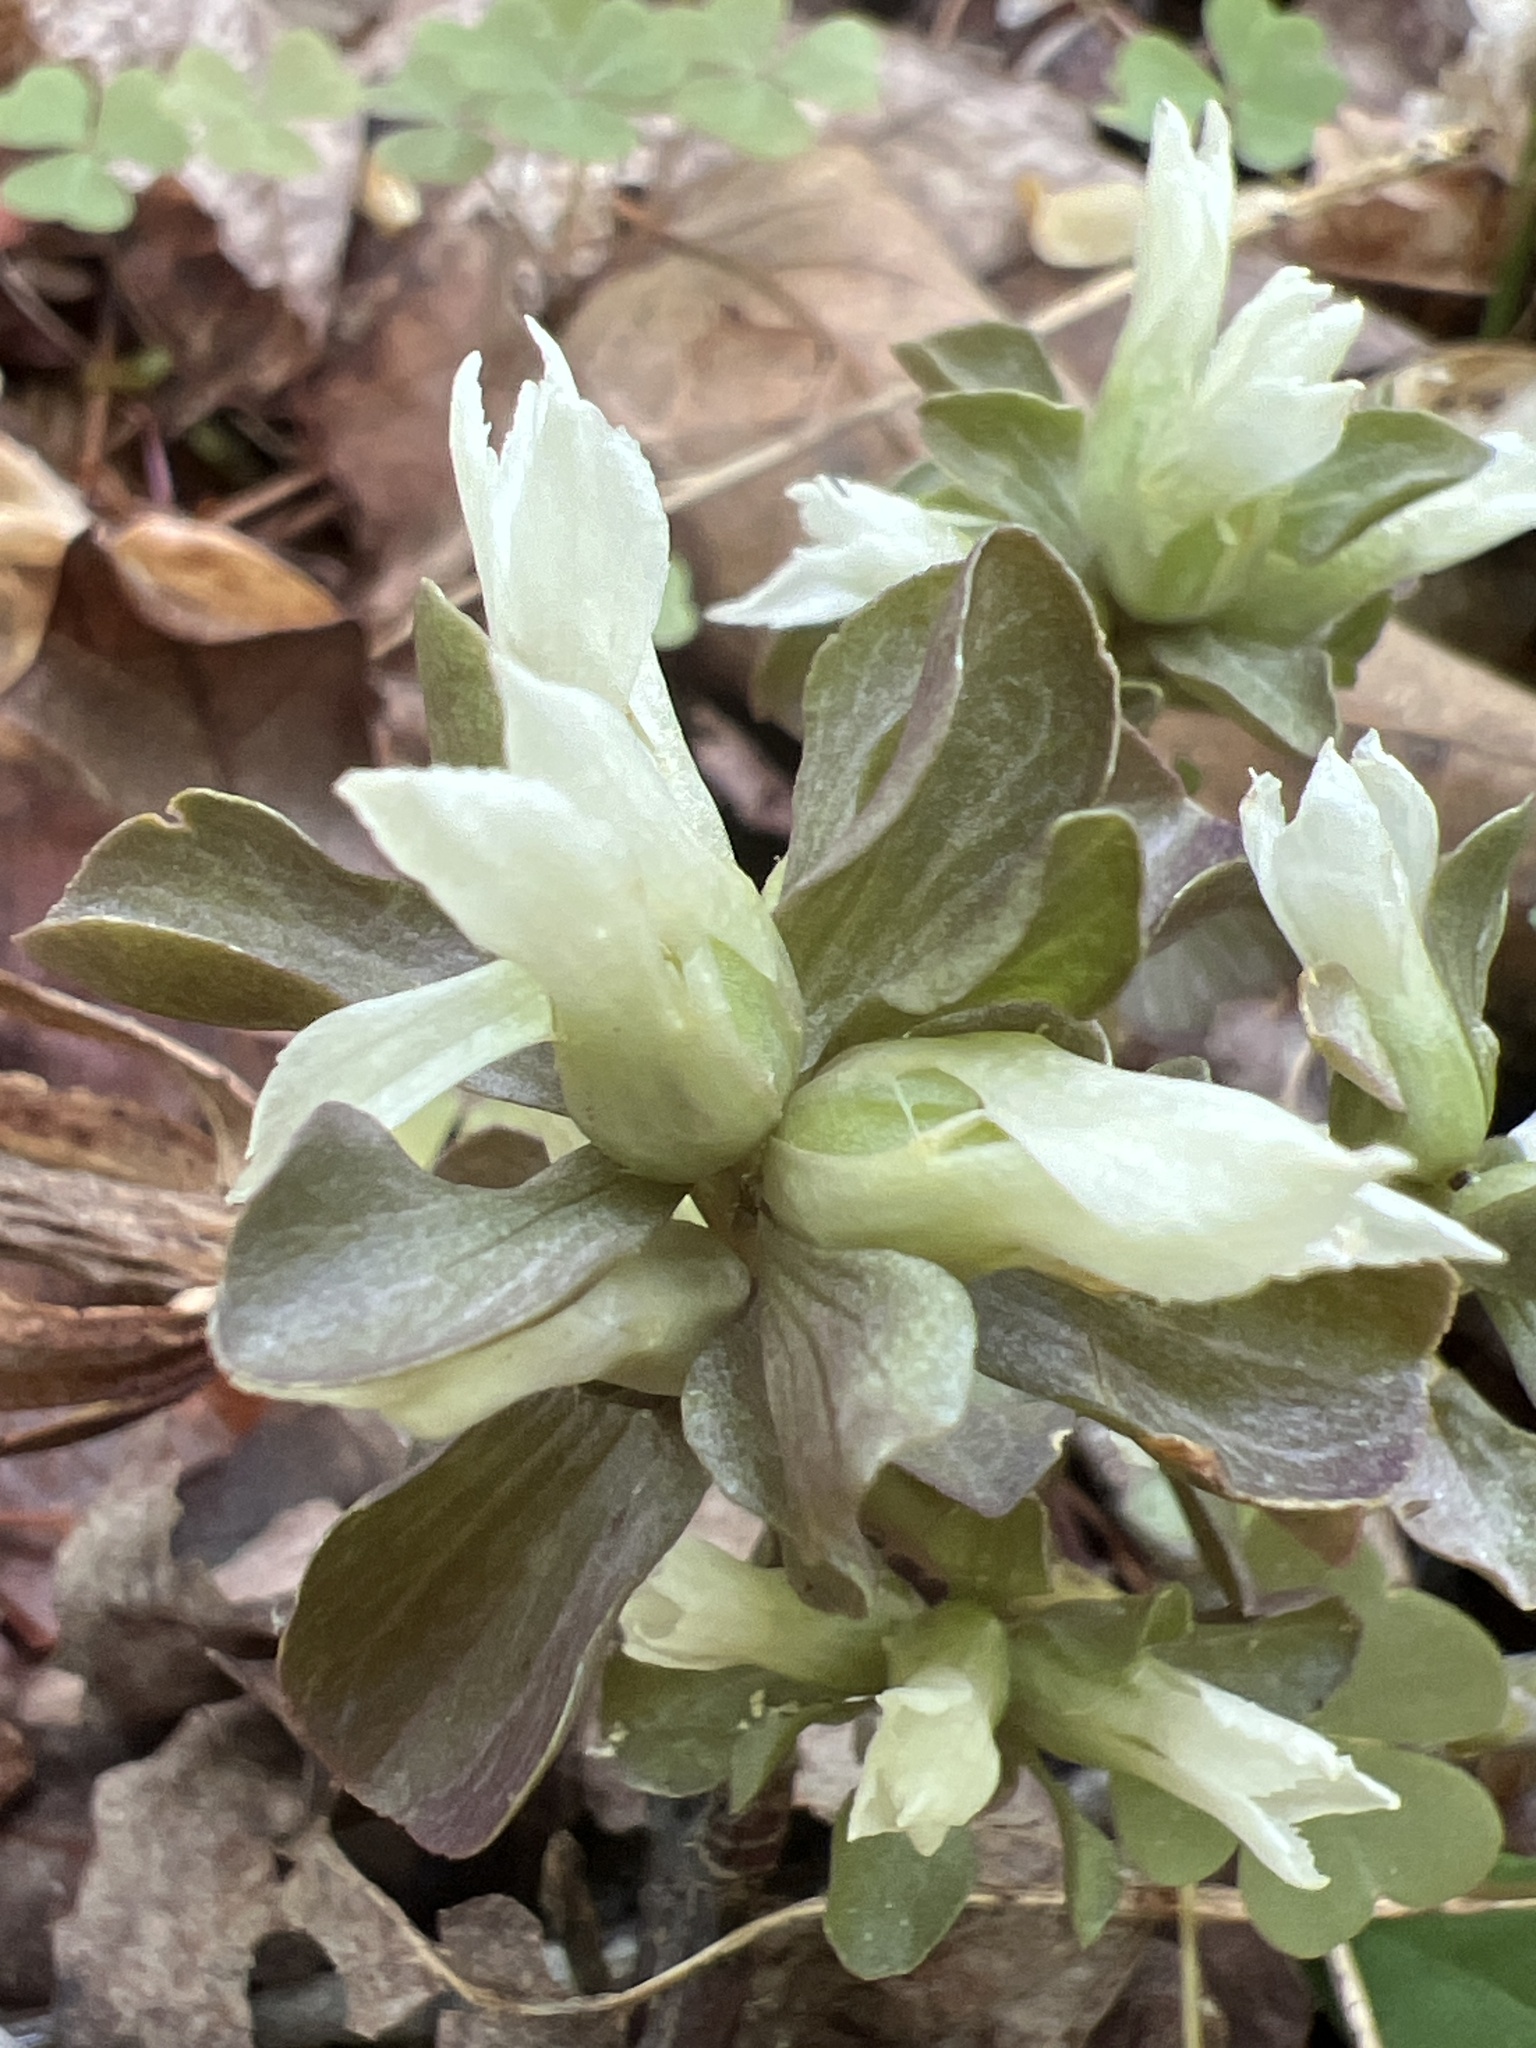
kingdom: Plantae
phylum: Tracheophyta
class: Magnoliopsida
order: Gentianales
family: Gentianaceae
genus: Obolaria
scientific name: Obolaria virginica
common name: Pennywort
